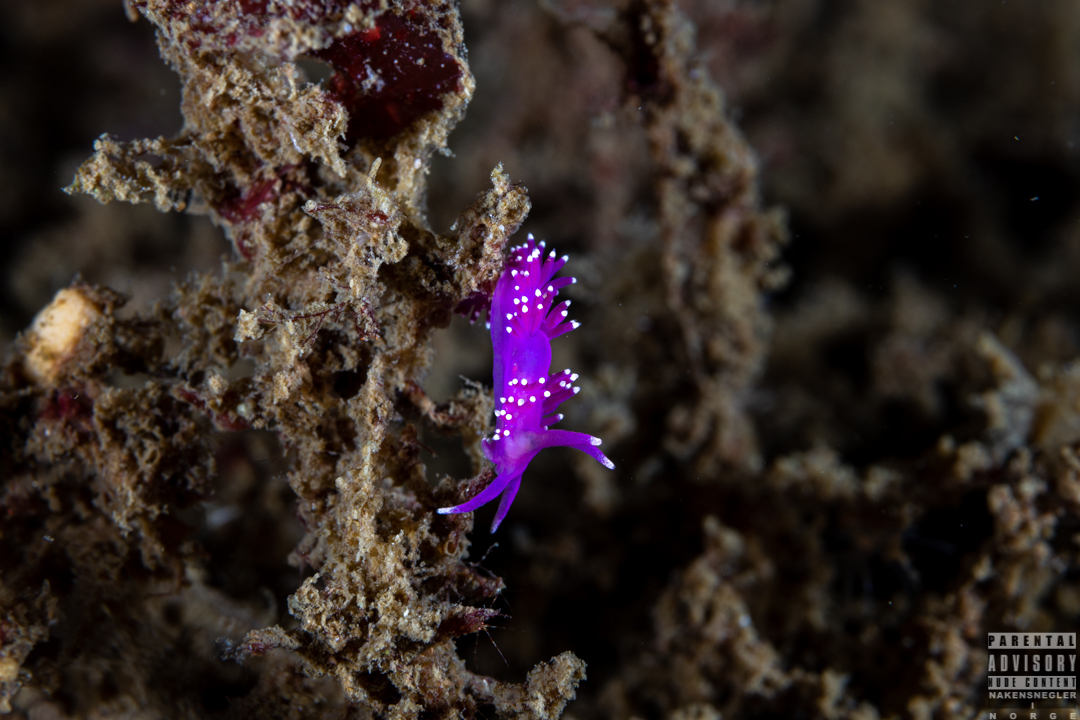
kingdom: Animalia
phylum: Mollusca
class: Gastropoda
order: Nudibranchia
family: Flabellinidae
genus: Edmundsella
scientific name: Edmundsella pedata
